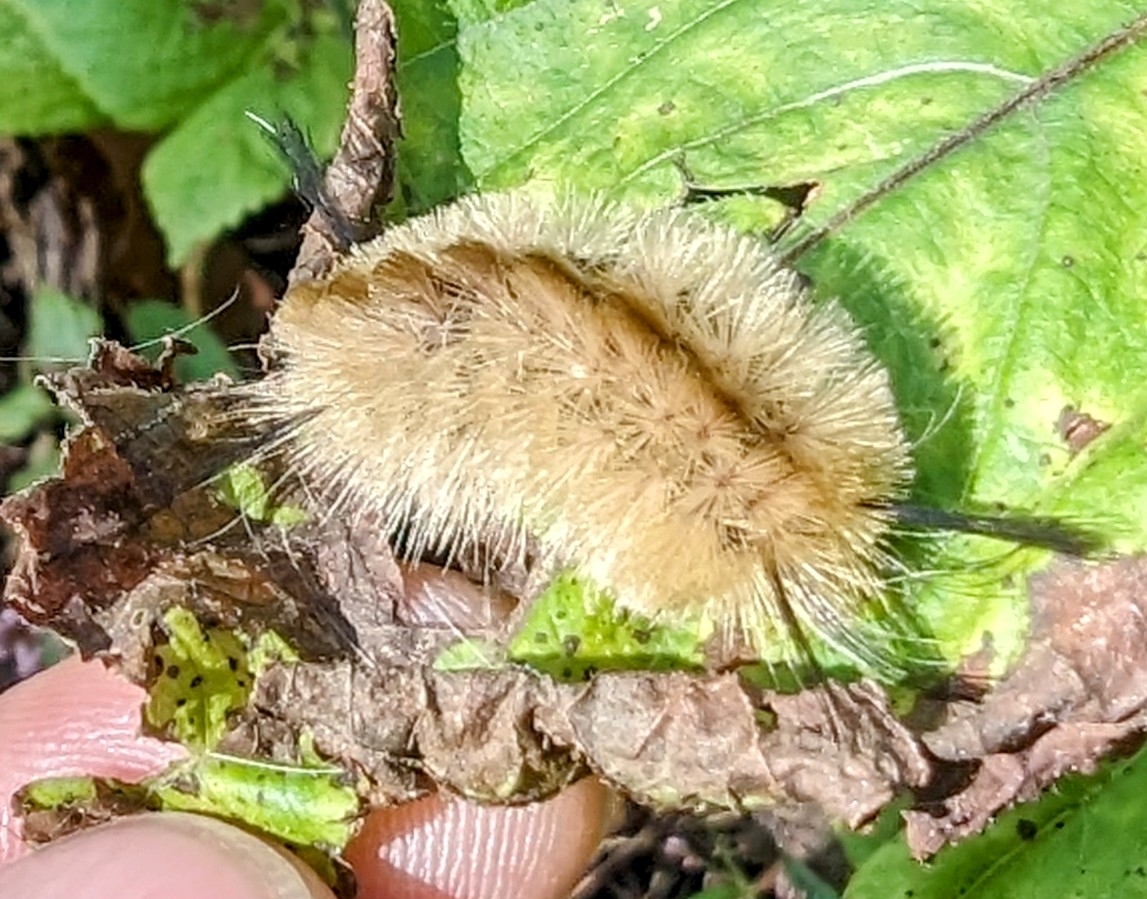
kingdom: Animalia
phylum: Arthropoda
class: Insecta
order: Lepidoptera
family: Erebidae
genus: Halysidota
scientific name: Halysidota tessellaris
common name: Banded tussock moth
